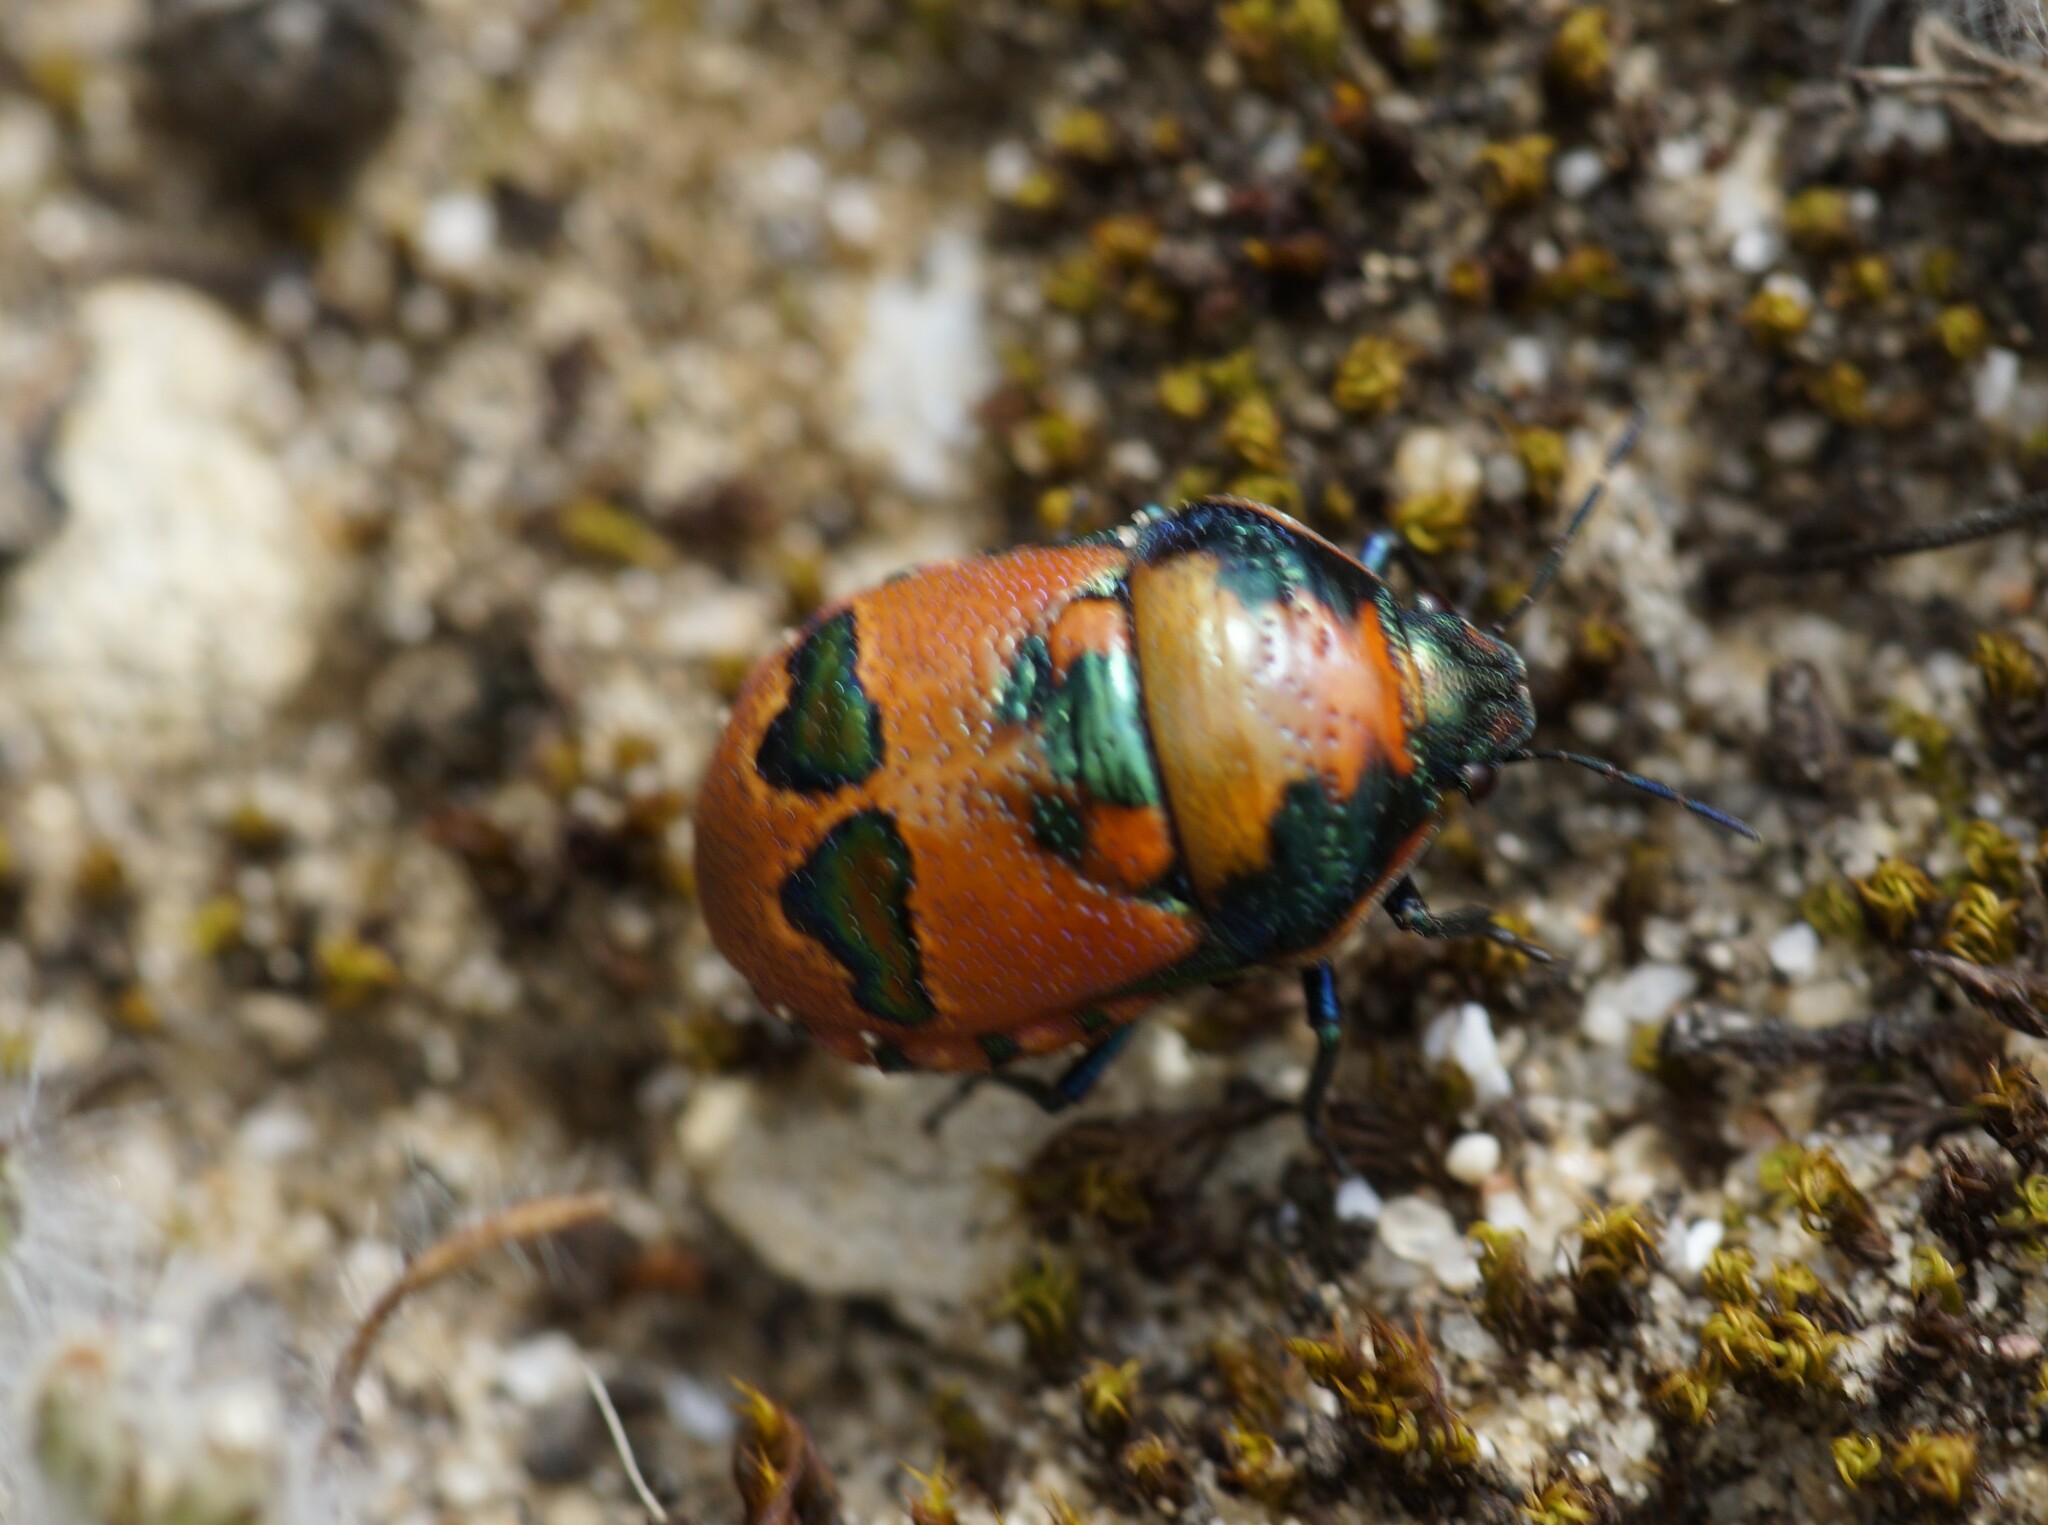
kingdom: Animalia
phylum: Arthropoda
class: Insecta
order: Hemiptera
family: Scutelleridae
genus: Choerocoris
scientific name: Choerocoris paganus
